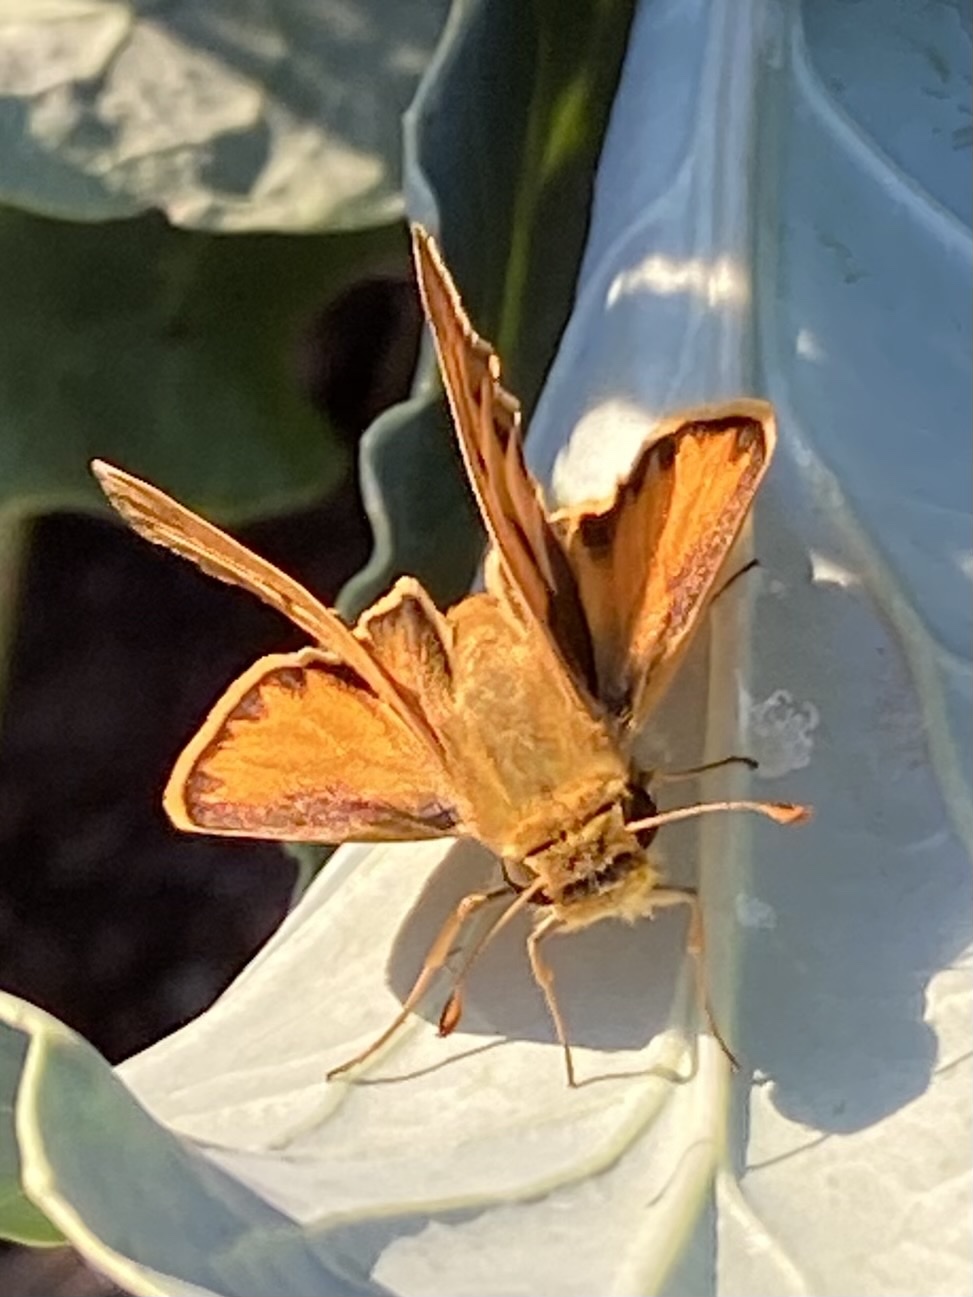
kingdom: Animalia
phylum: Arthropoda
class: Insecta
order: Lepidoptera
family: Hesperiidae
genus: Hylephila
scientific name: Hylephila phyleus
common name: Fiery skipper
